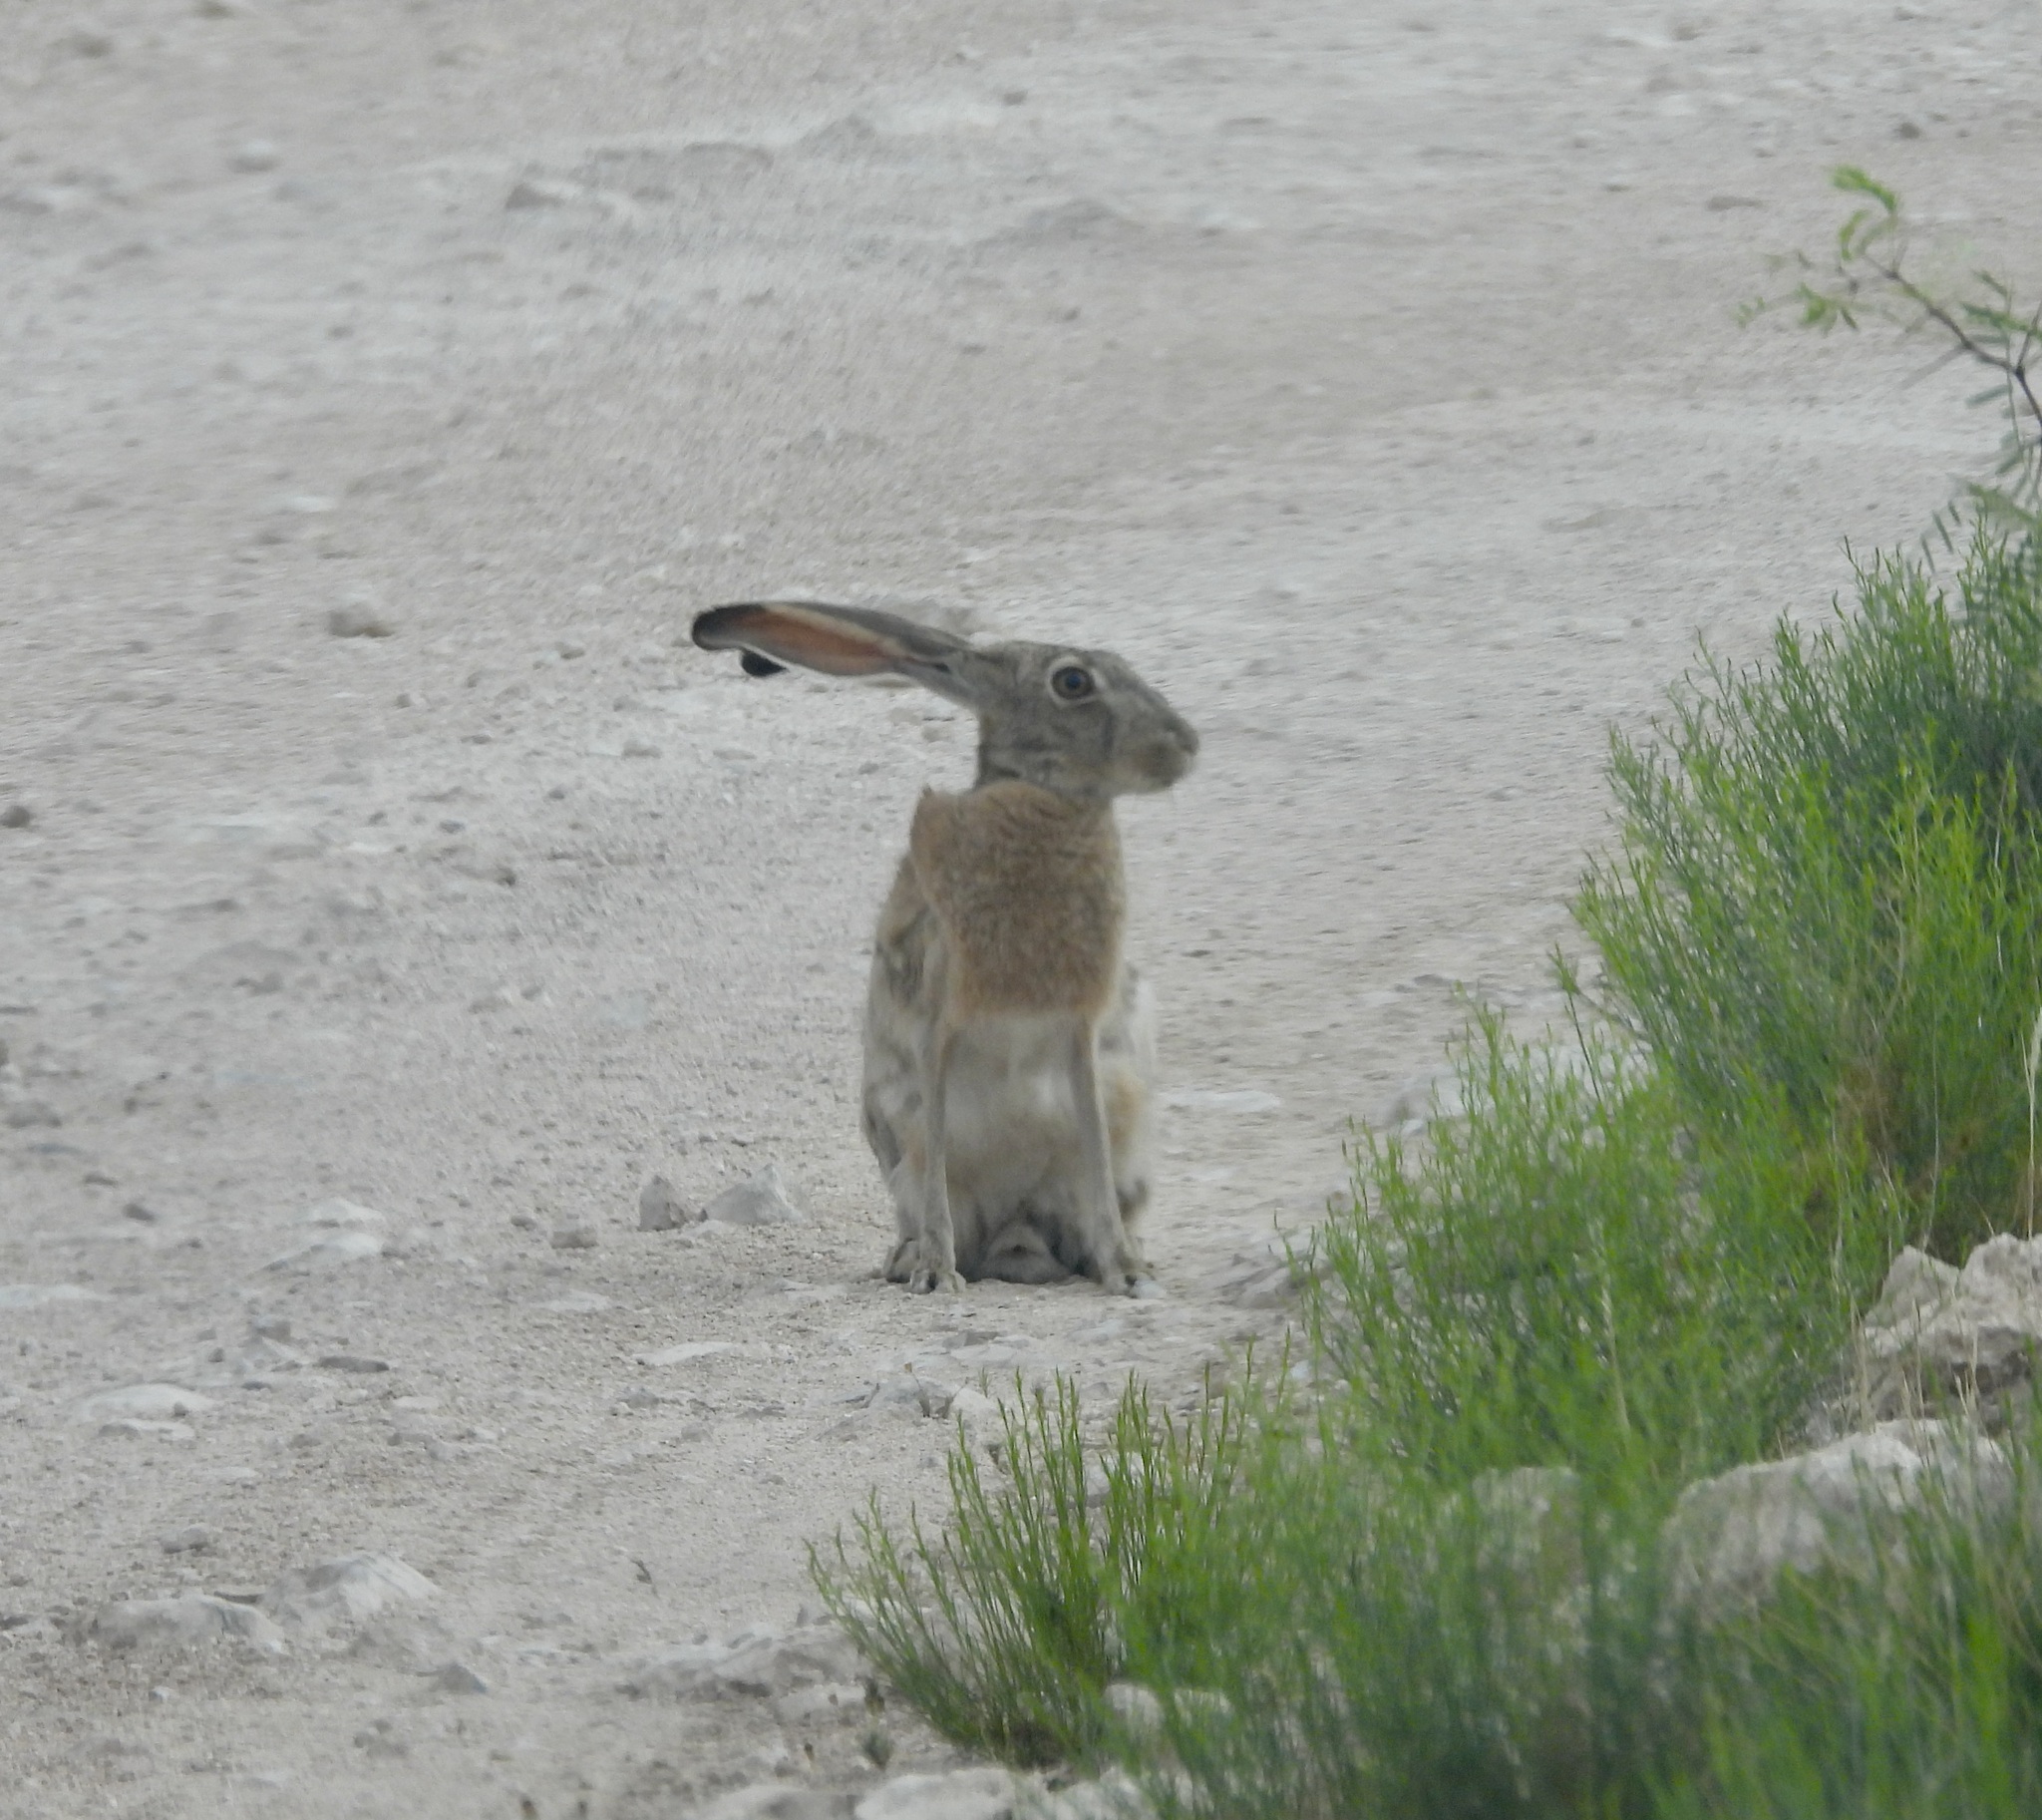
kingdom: Animalia
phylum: Chordata
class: Mammalia
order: Lagomorpha
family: Leporidae
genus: Lepus
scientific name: Lepus californicus
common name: Black-tailed jackrabbit
